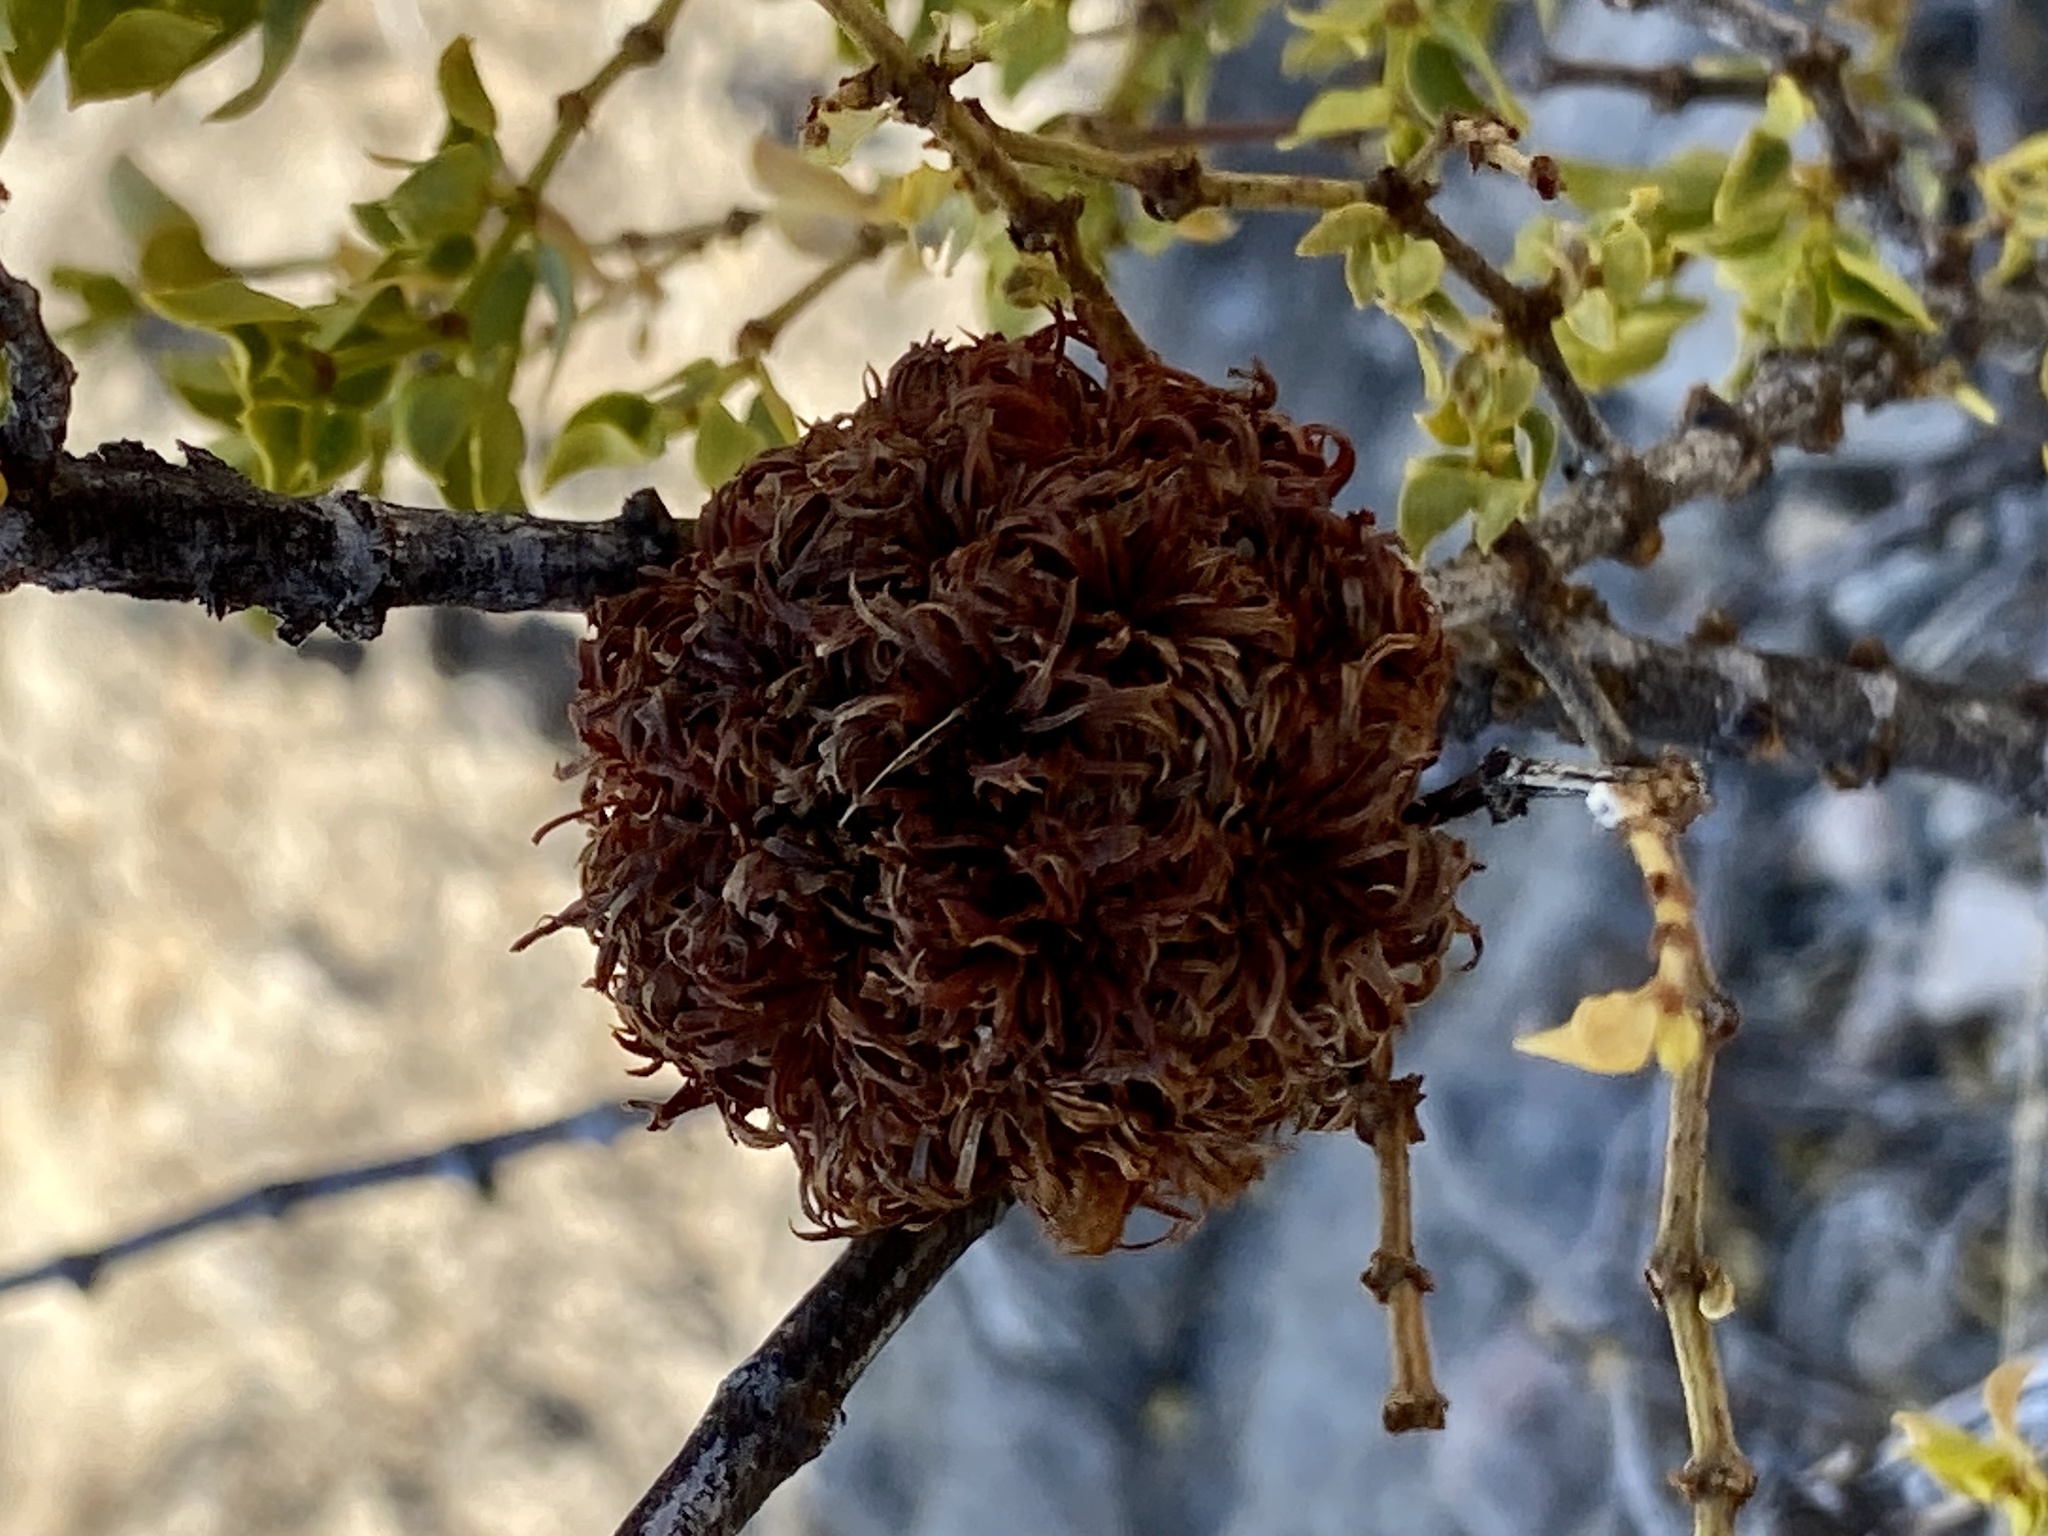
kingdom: Animalia
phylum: Arthropoda
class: Insecta
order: Diptera
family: Cecidomyiidae
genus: Asphondylia
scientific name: Asphondylia auripila
